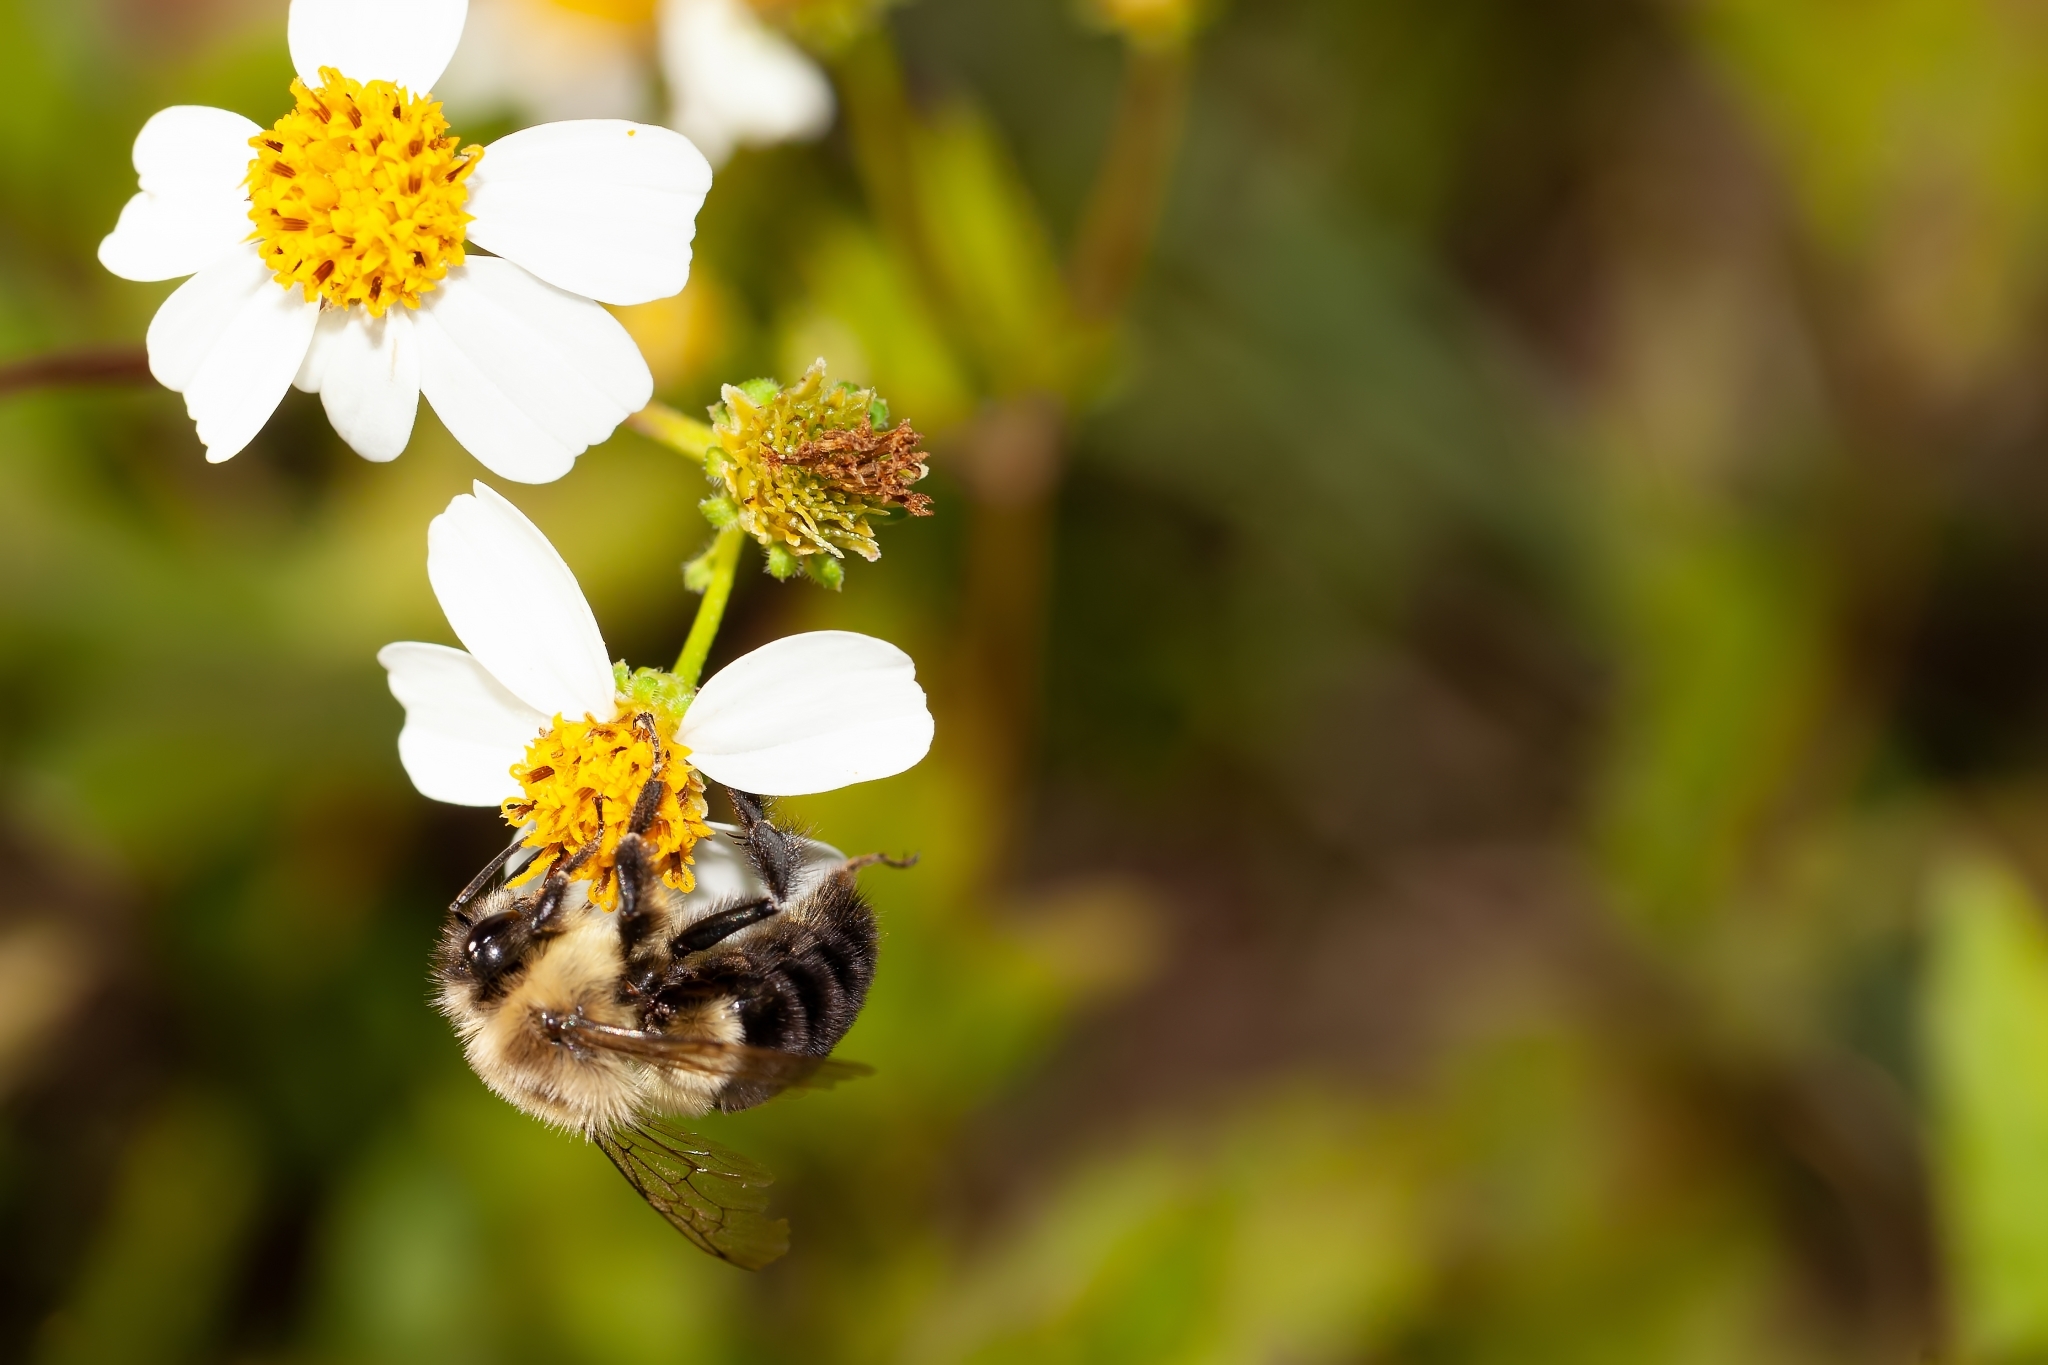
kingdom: Animalia
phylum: Arthropoda
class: Insecta
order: Hymenoptera
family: Apidae
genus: Bombus
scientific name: Bombus impatiens
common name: Common eastern bumble bee
